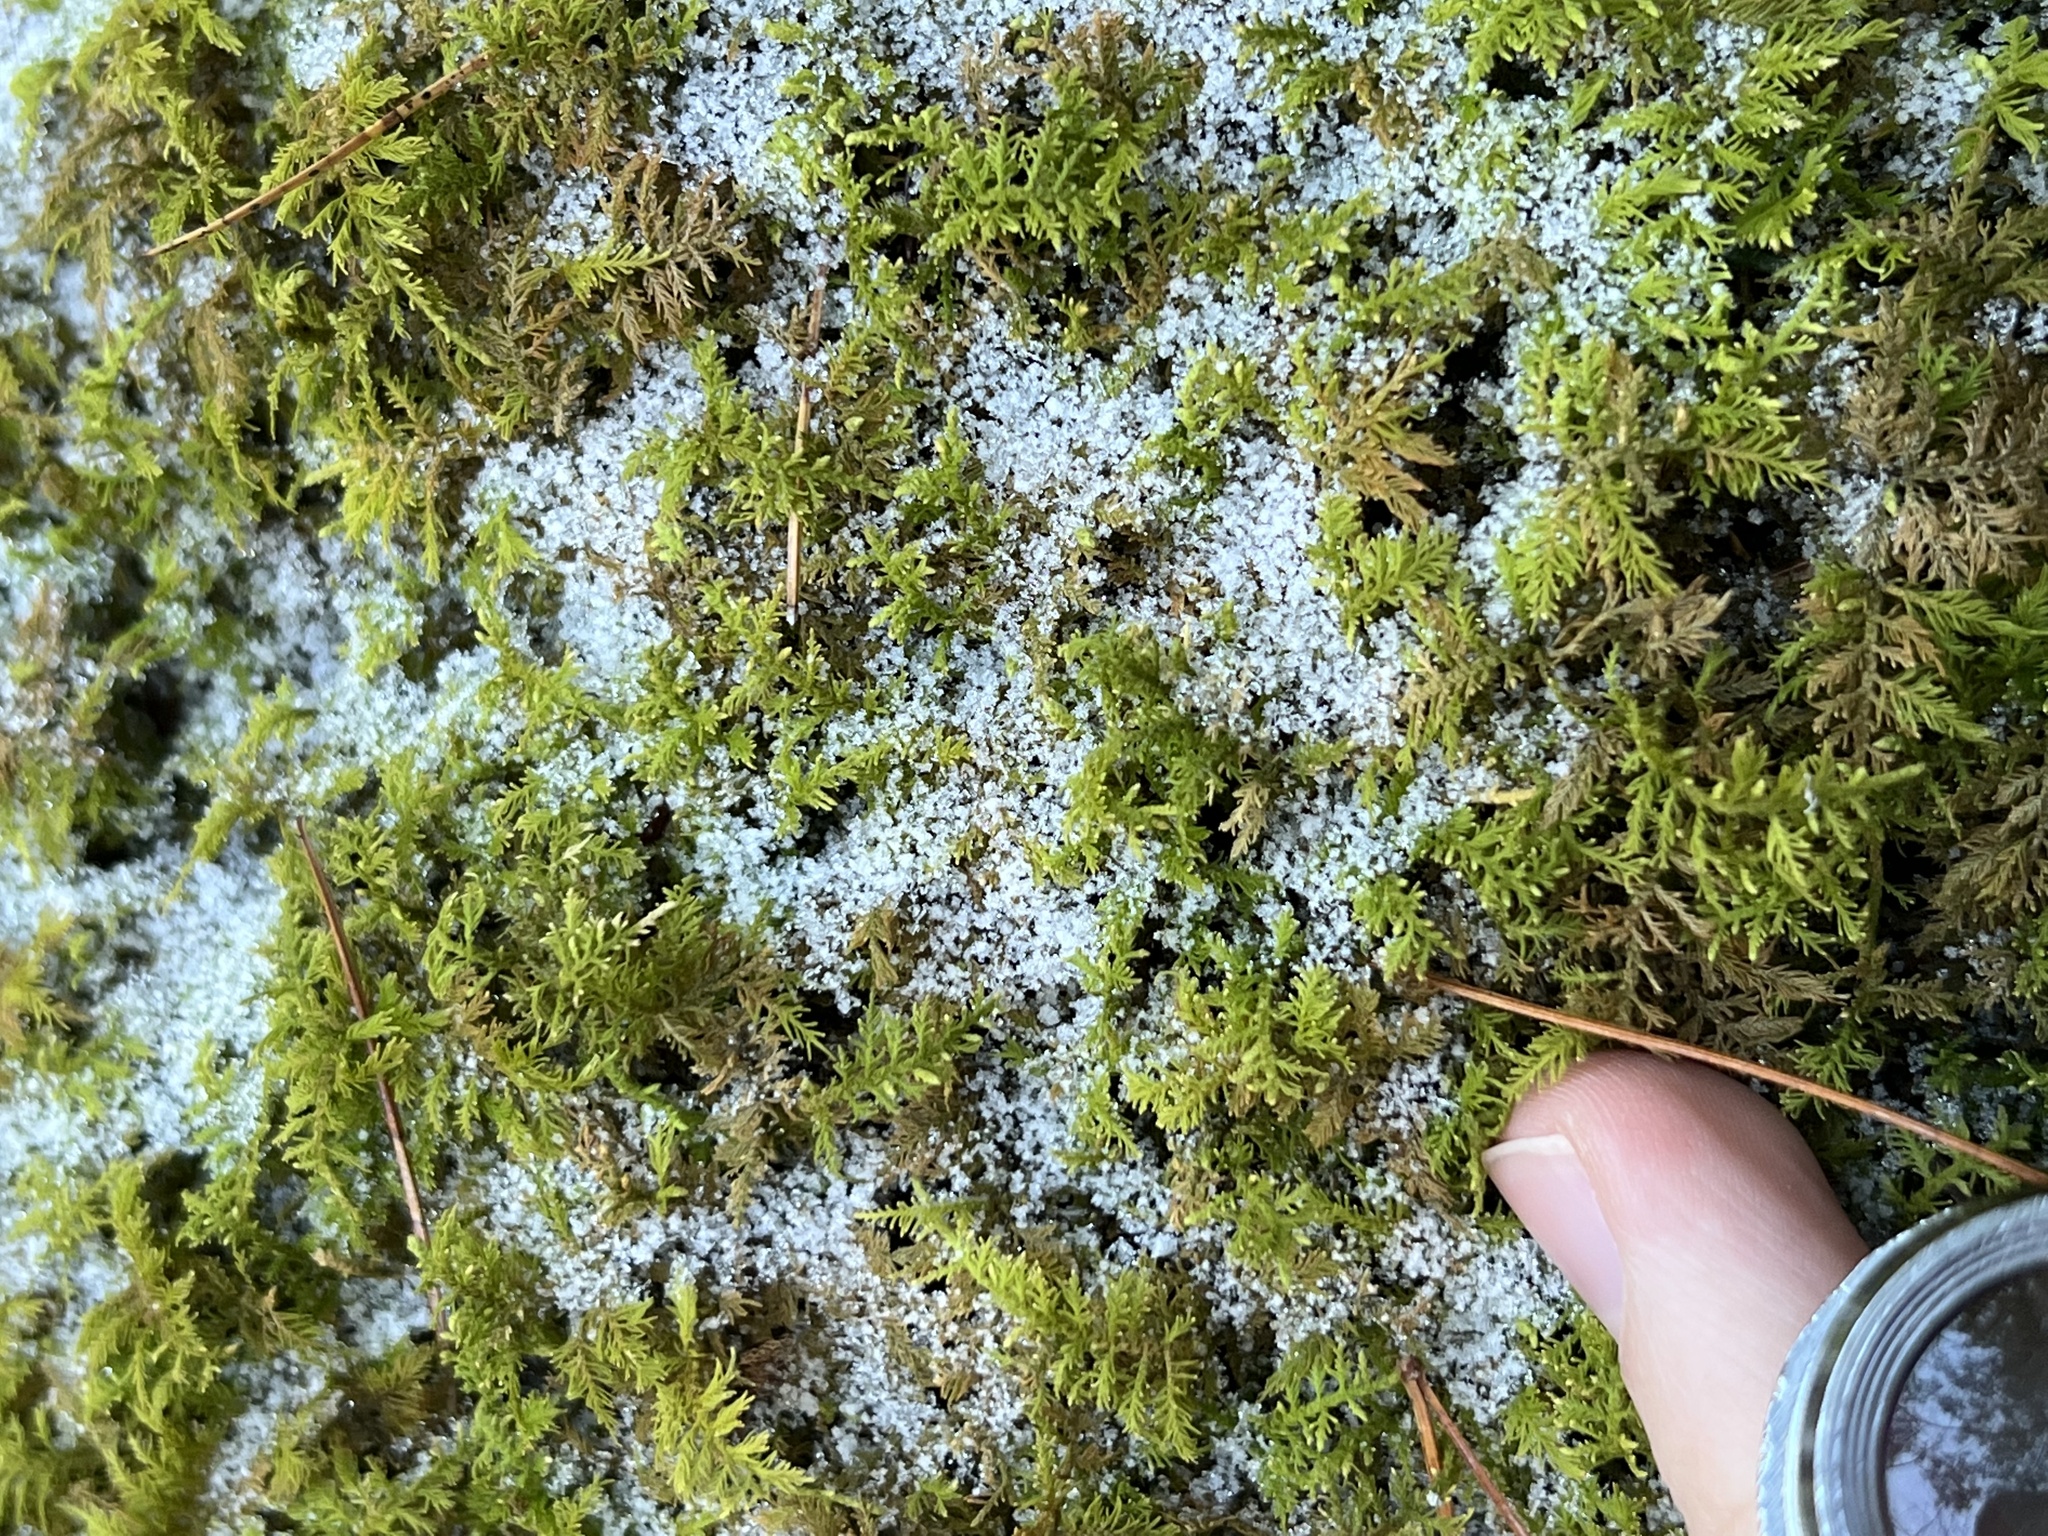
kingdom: Plantae
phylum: Bryophyta
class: Bryopsida
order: Hypnales
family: Thuidiaceae
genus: Thuidium
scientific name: Thuidium delicatulum
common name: Delicate fern moss
